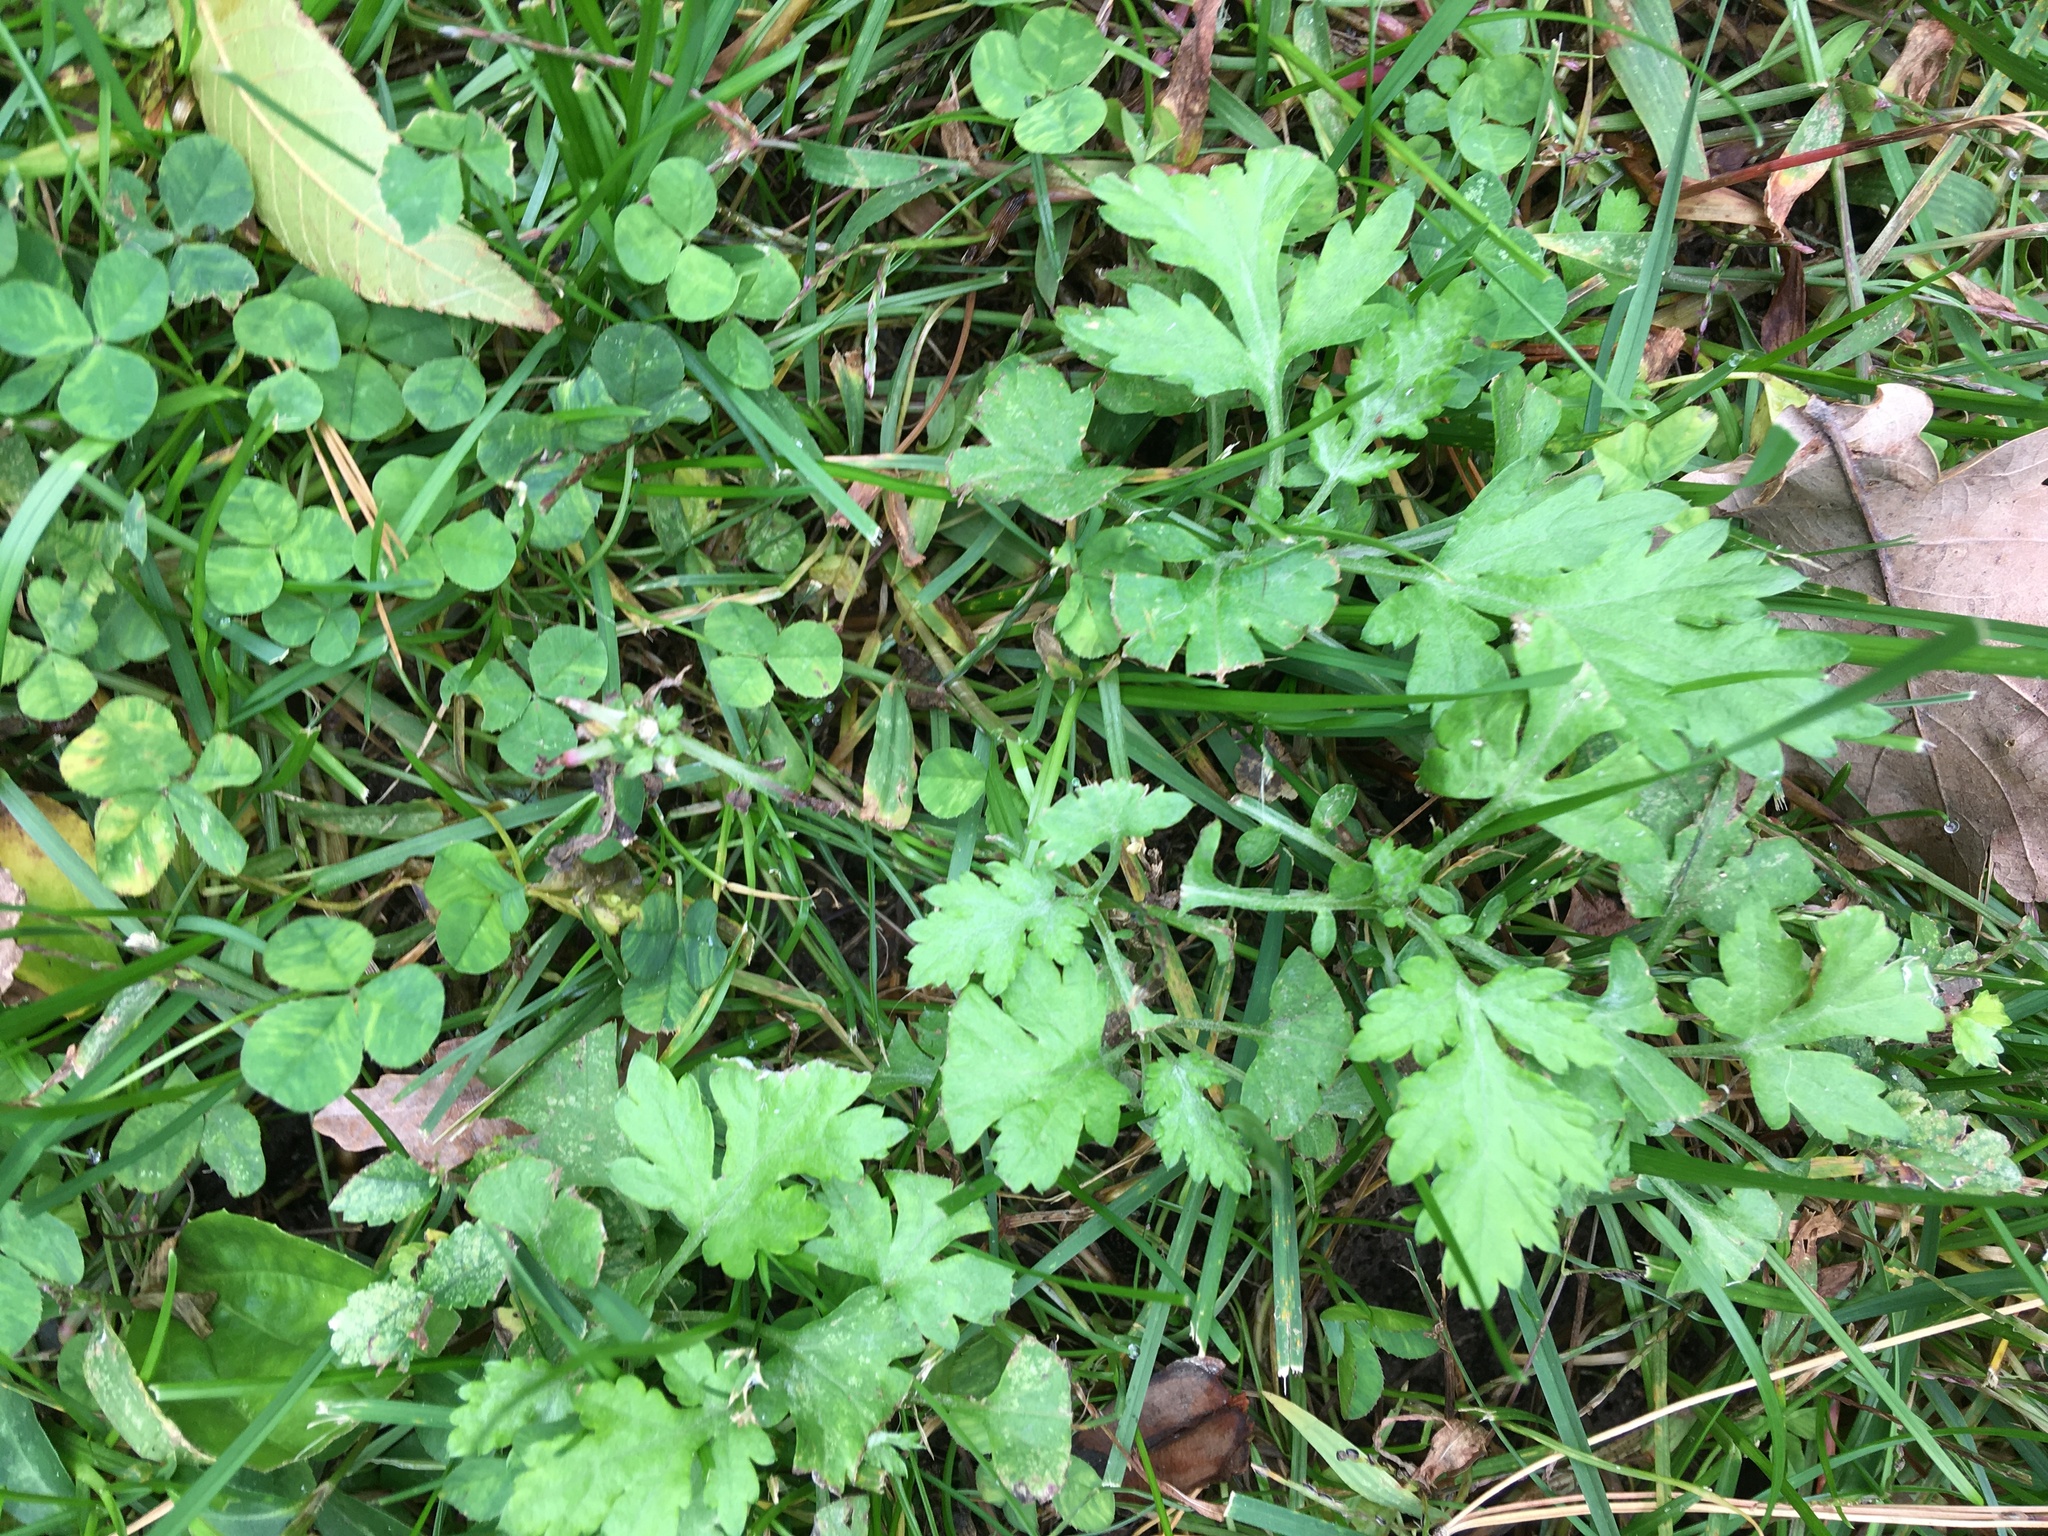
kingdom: Plantae
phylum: Tracheophyta
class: Magnoliopsida
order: Asterales
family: Asteraceae
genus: Artemisia
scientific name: Artemisia vulgaris
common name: Mugwort
